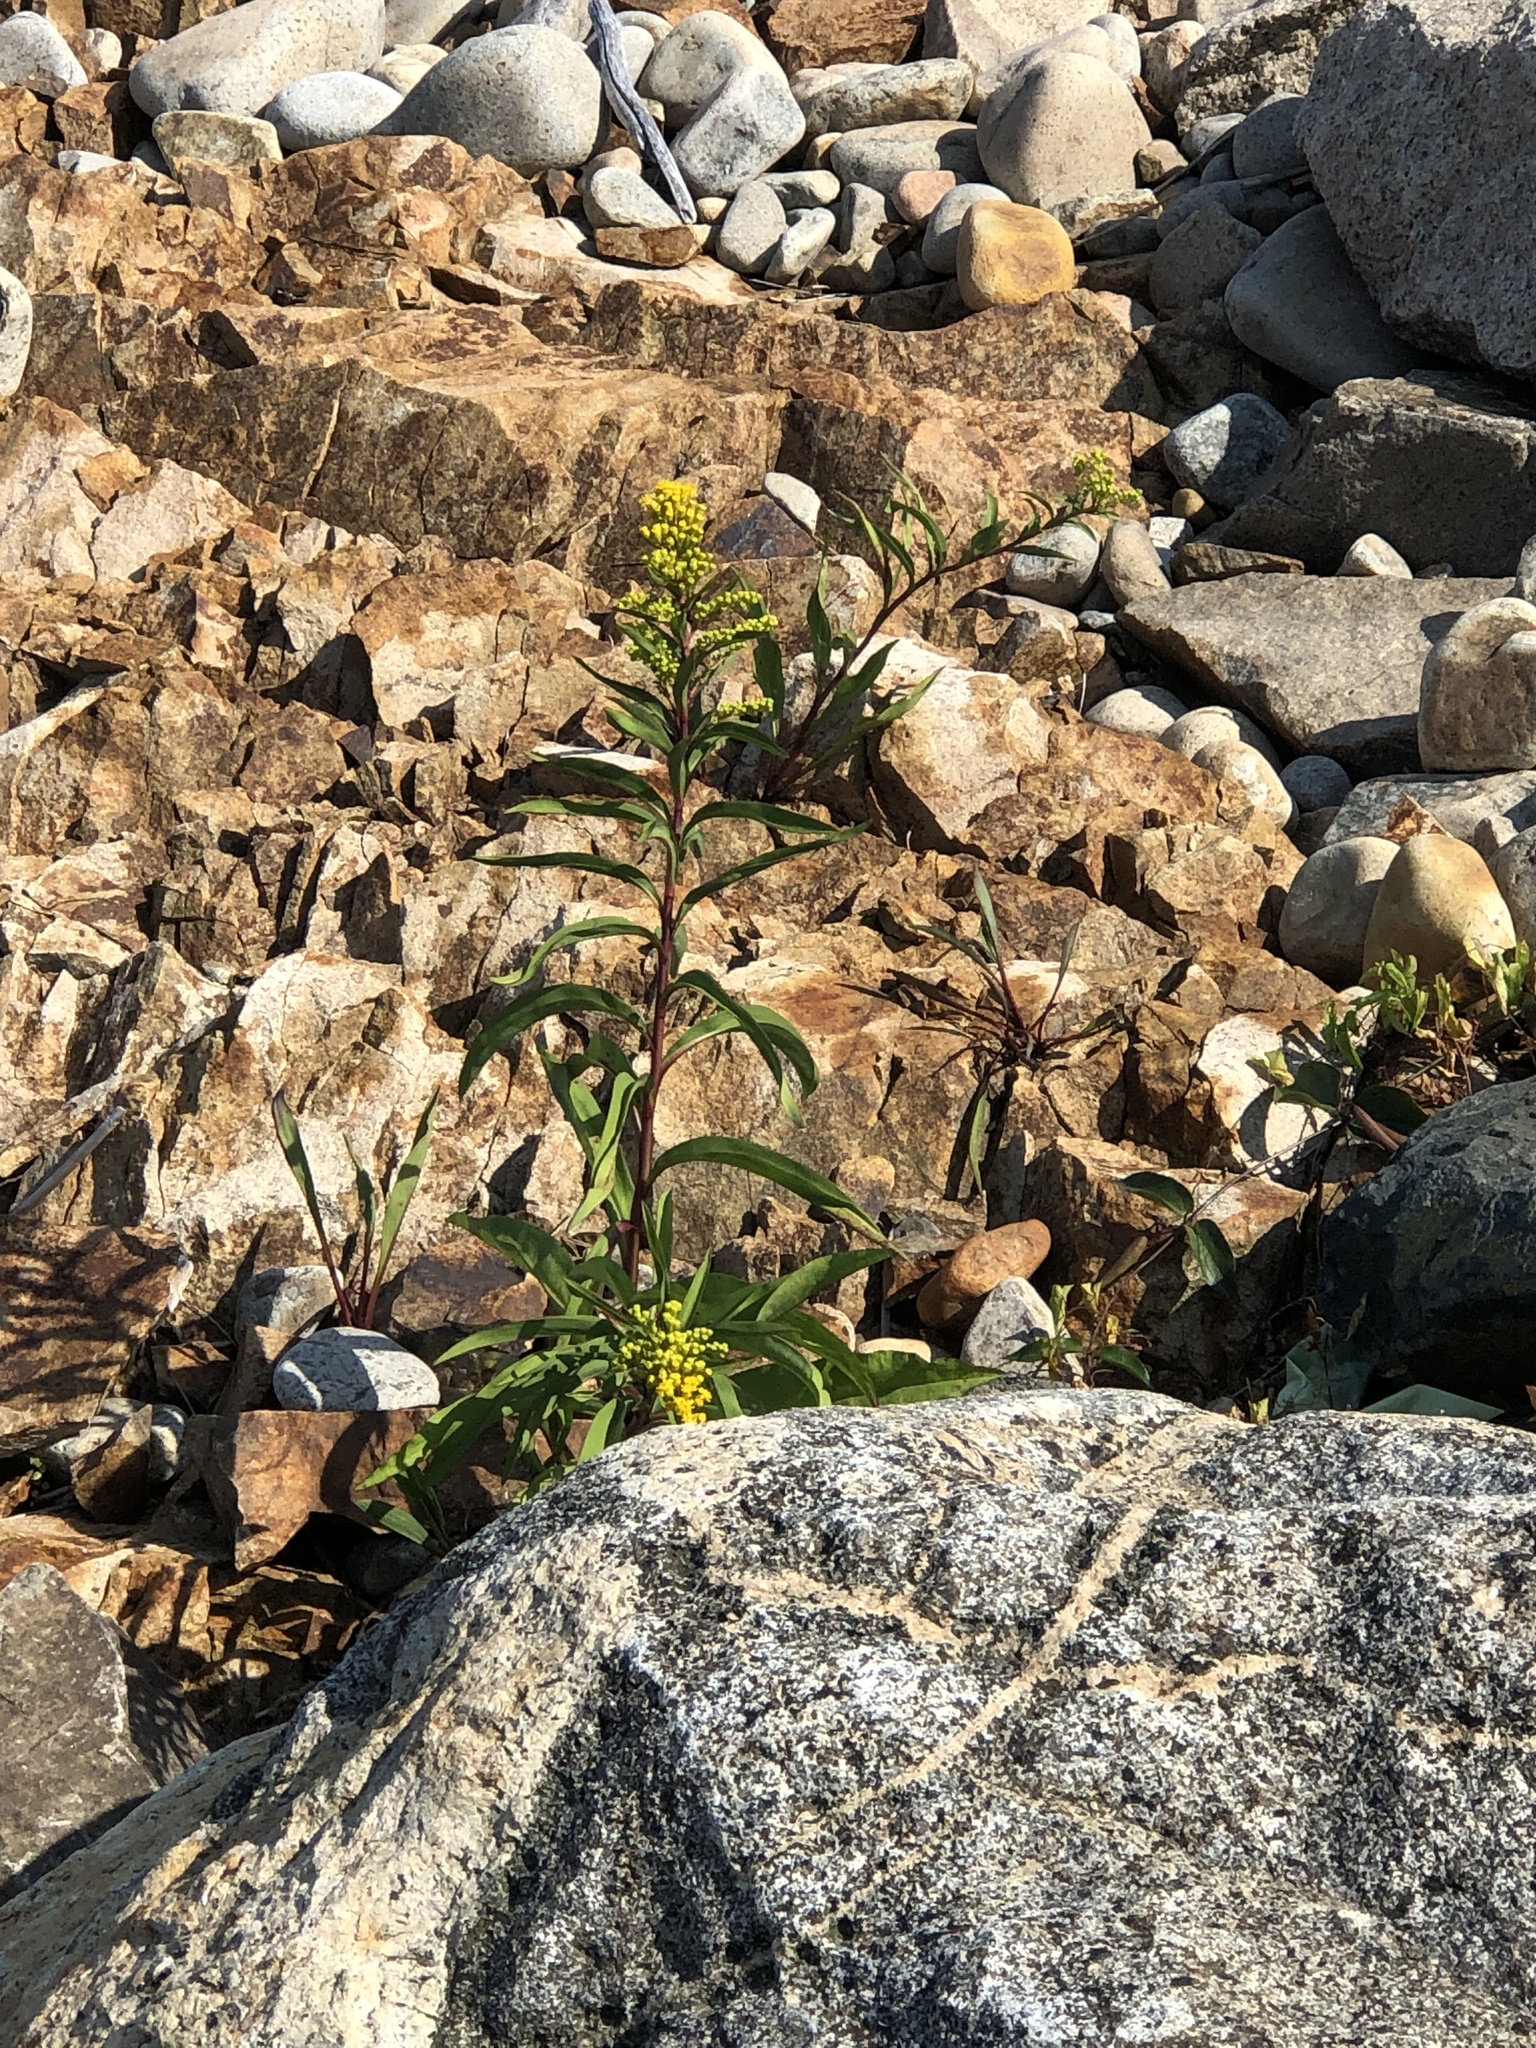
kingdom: Plantae
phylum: Tracheophyta
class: Magnoliopsida
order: Asterales
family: Asteraceae
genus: Solidago
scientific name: Solidago sempervirens
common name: Salt-marsh goldenrod
